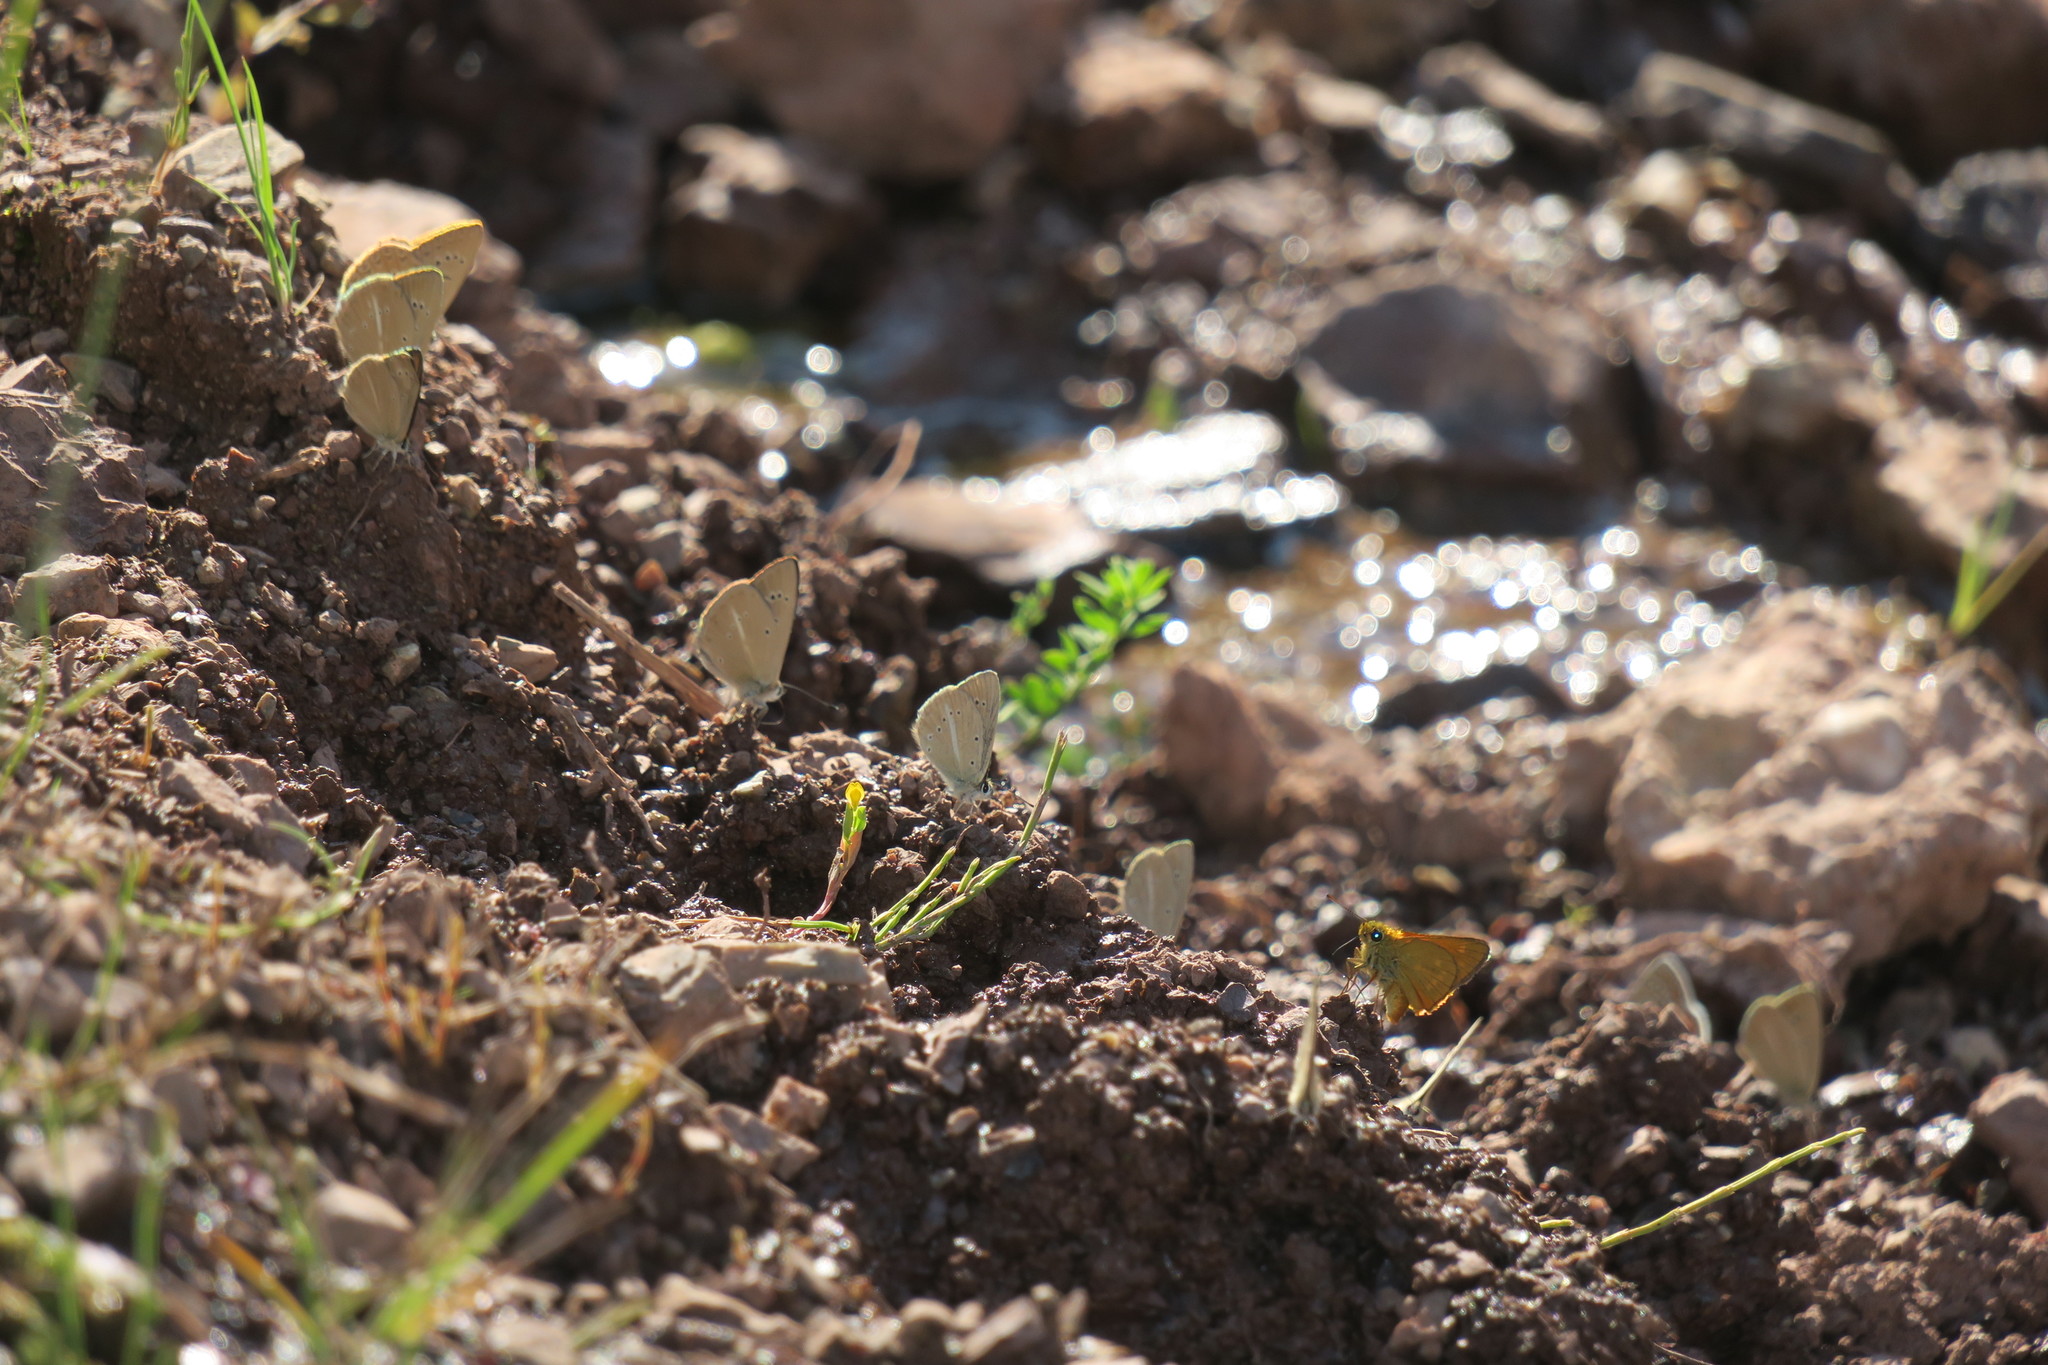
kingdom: Animalia
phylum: Arthropoda
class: Insecta
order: Lepidoptera
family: Hesperiidae
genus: Ochlodes
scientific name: Ochlodes venata
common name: Large skipper
